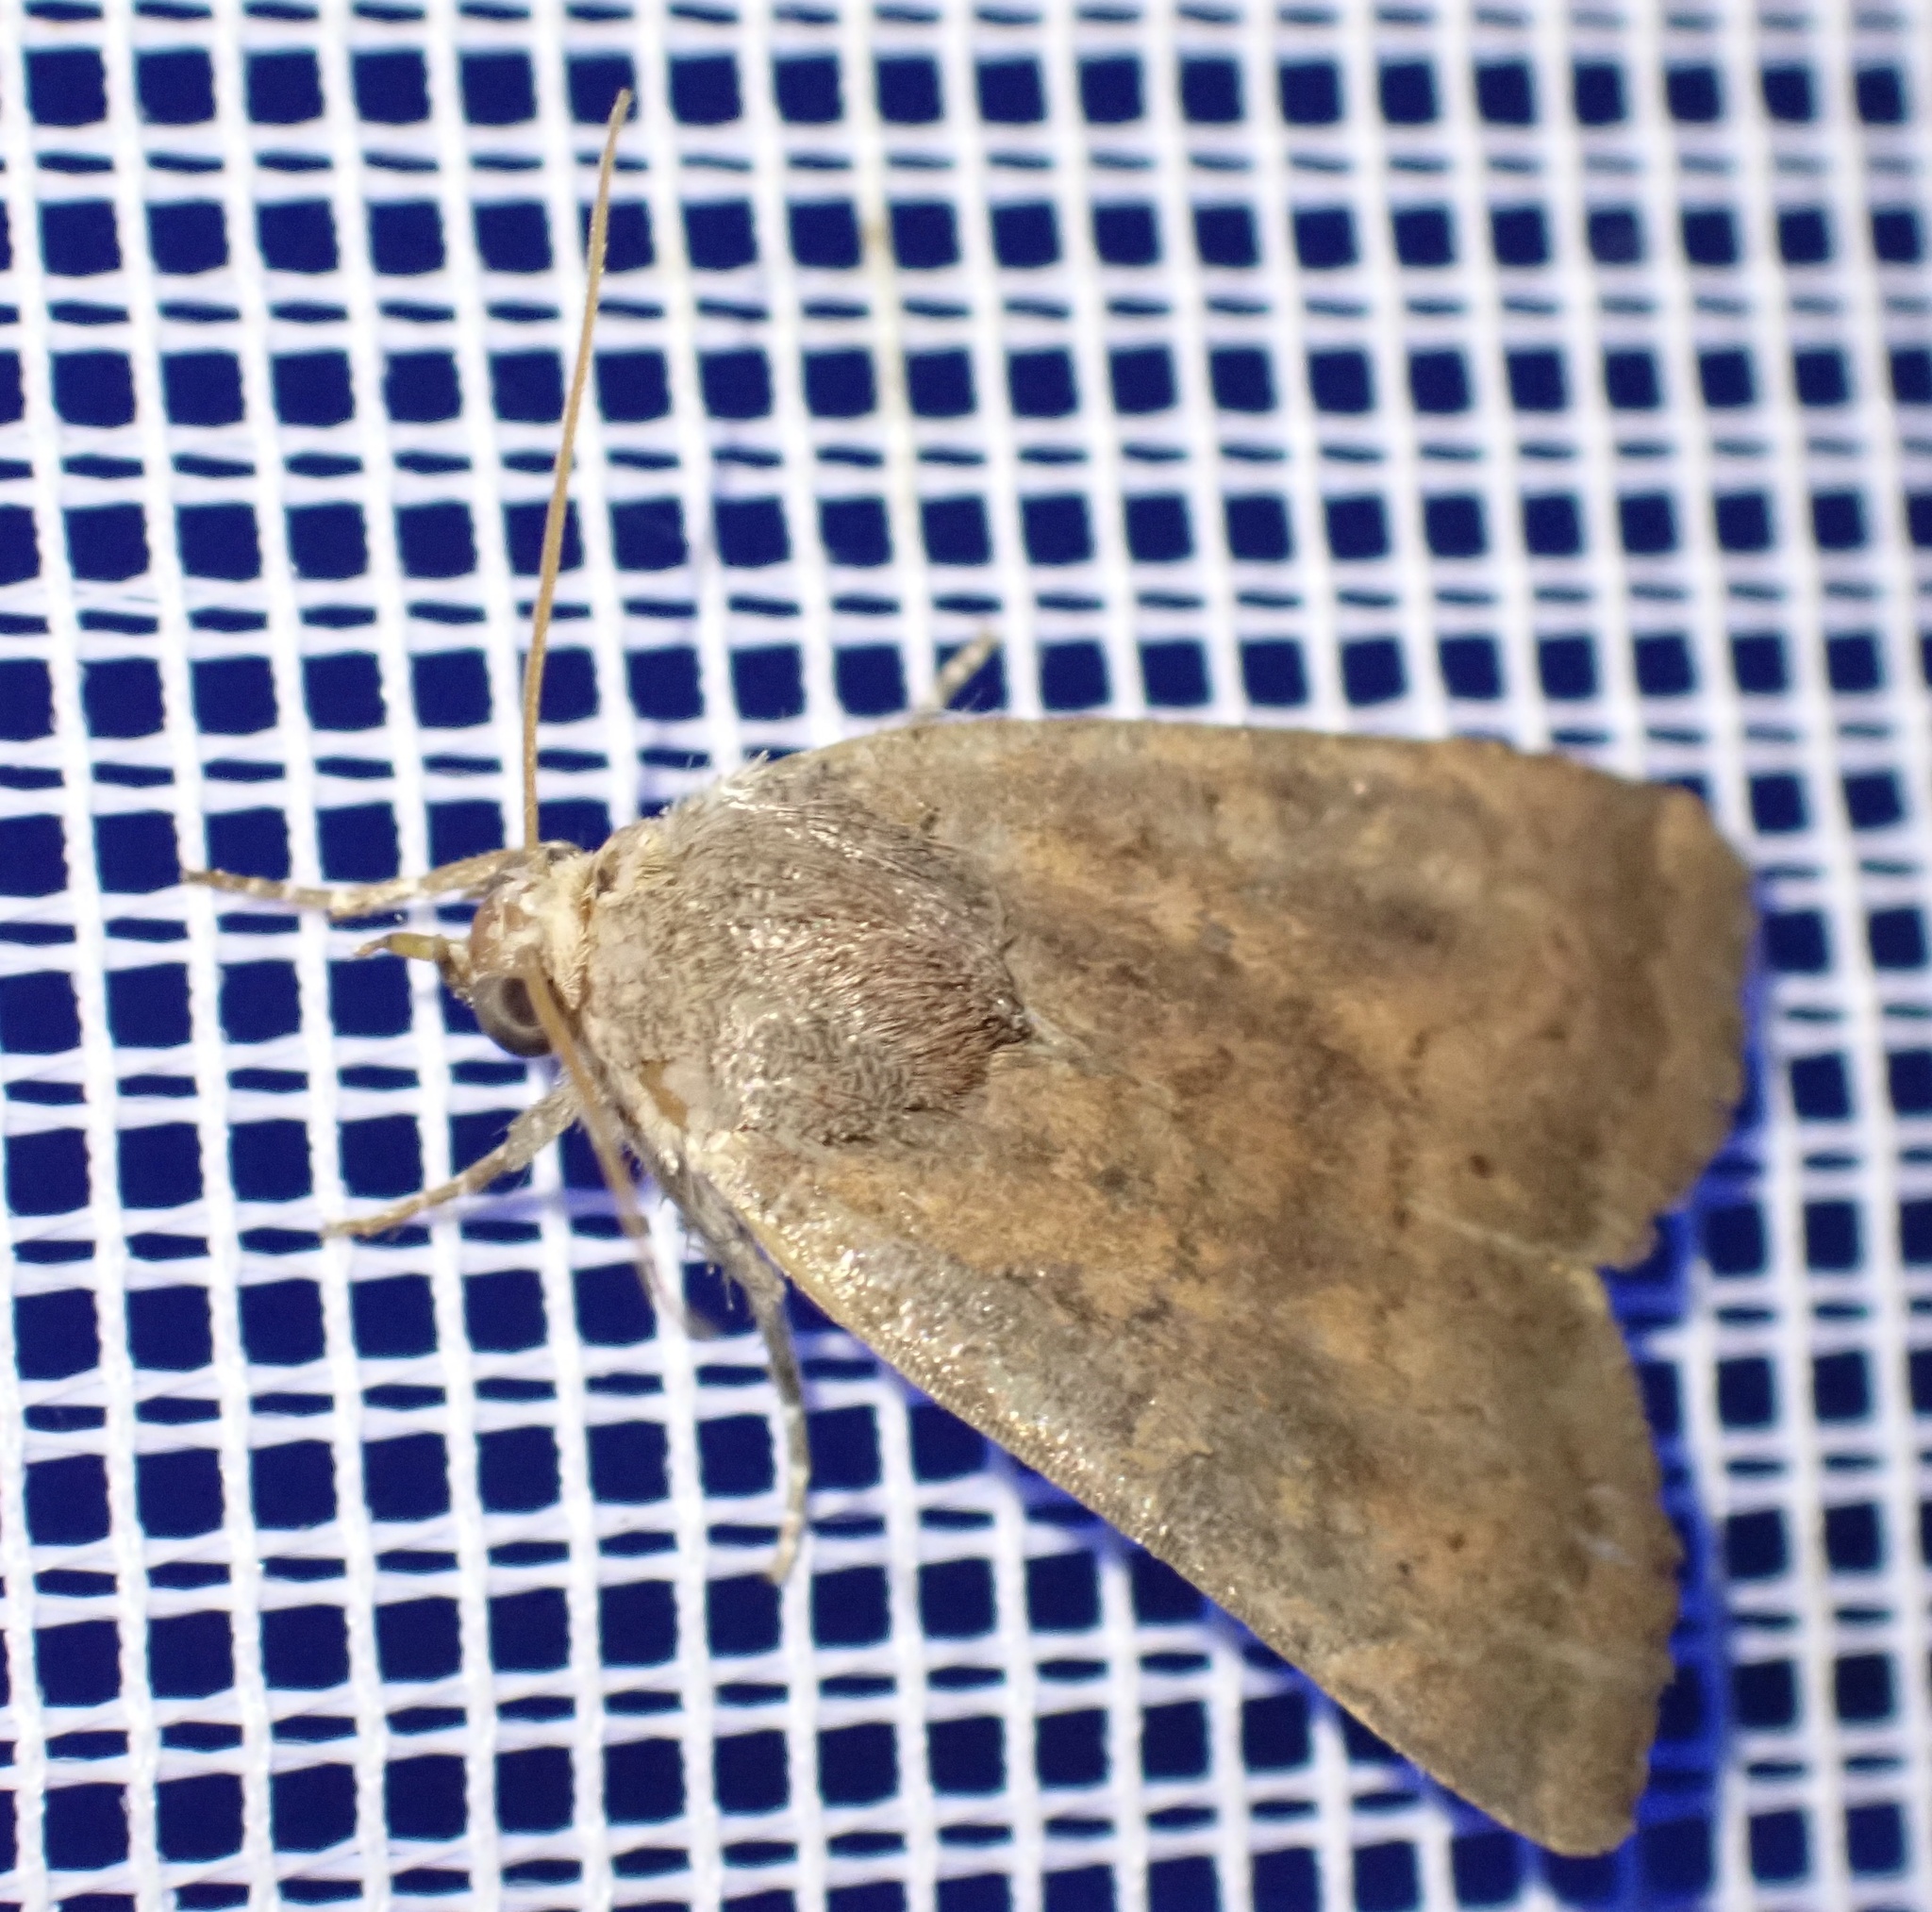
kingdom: Animalia
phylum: Arthropoda
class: Insecta
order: Lepidoptera
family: Noctuidae
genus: Noctua
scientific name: Noctua interjecta
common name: Least yellow underwing
